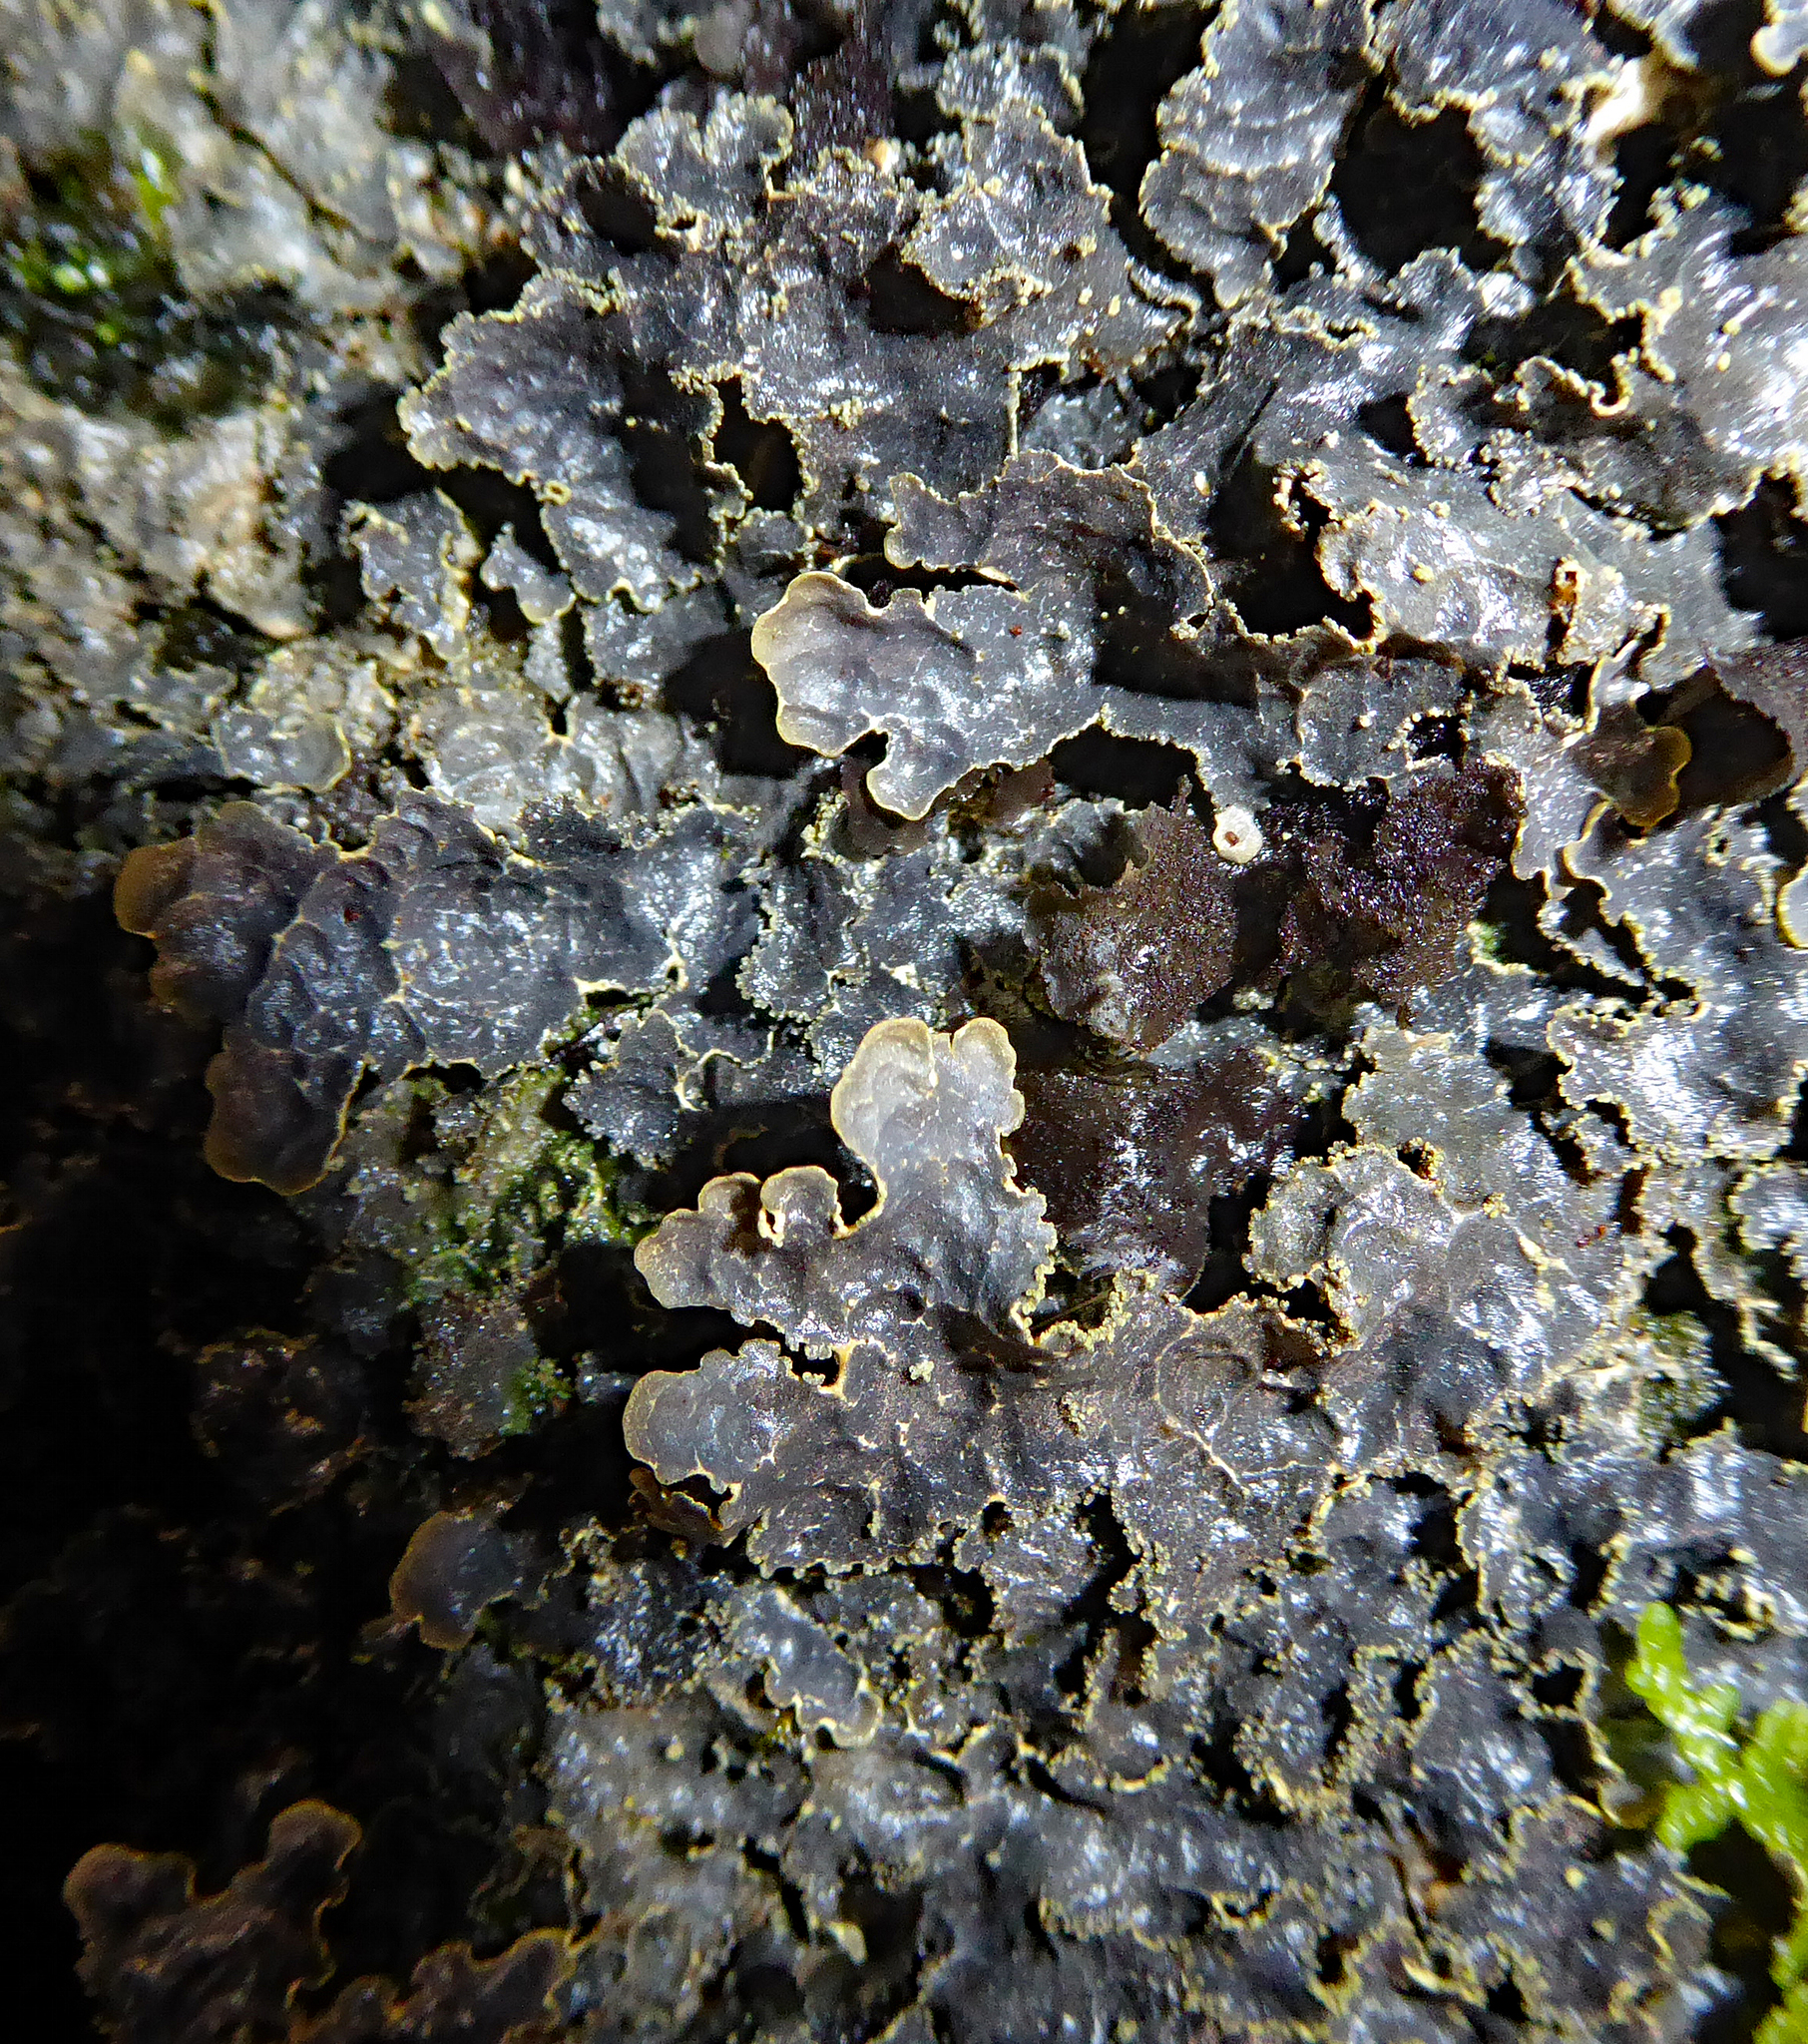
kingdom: Fungi
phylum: Ascomycota
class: Lecanoromycetes
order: Peltigerales
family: Lobariaceae
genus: Pseudocyphellaria
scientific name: Pseudocyphellaria crocata
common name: Golden specklebelly
